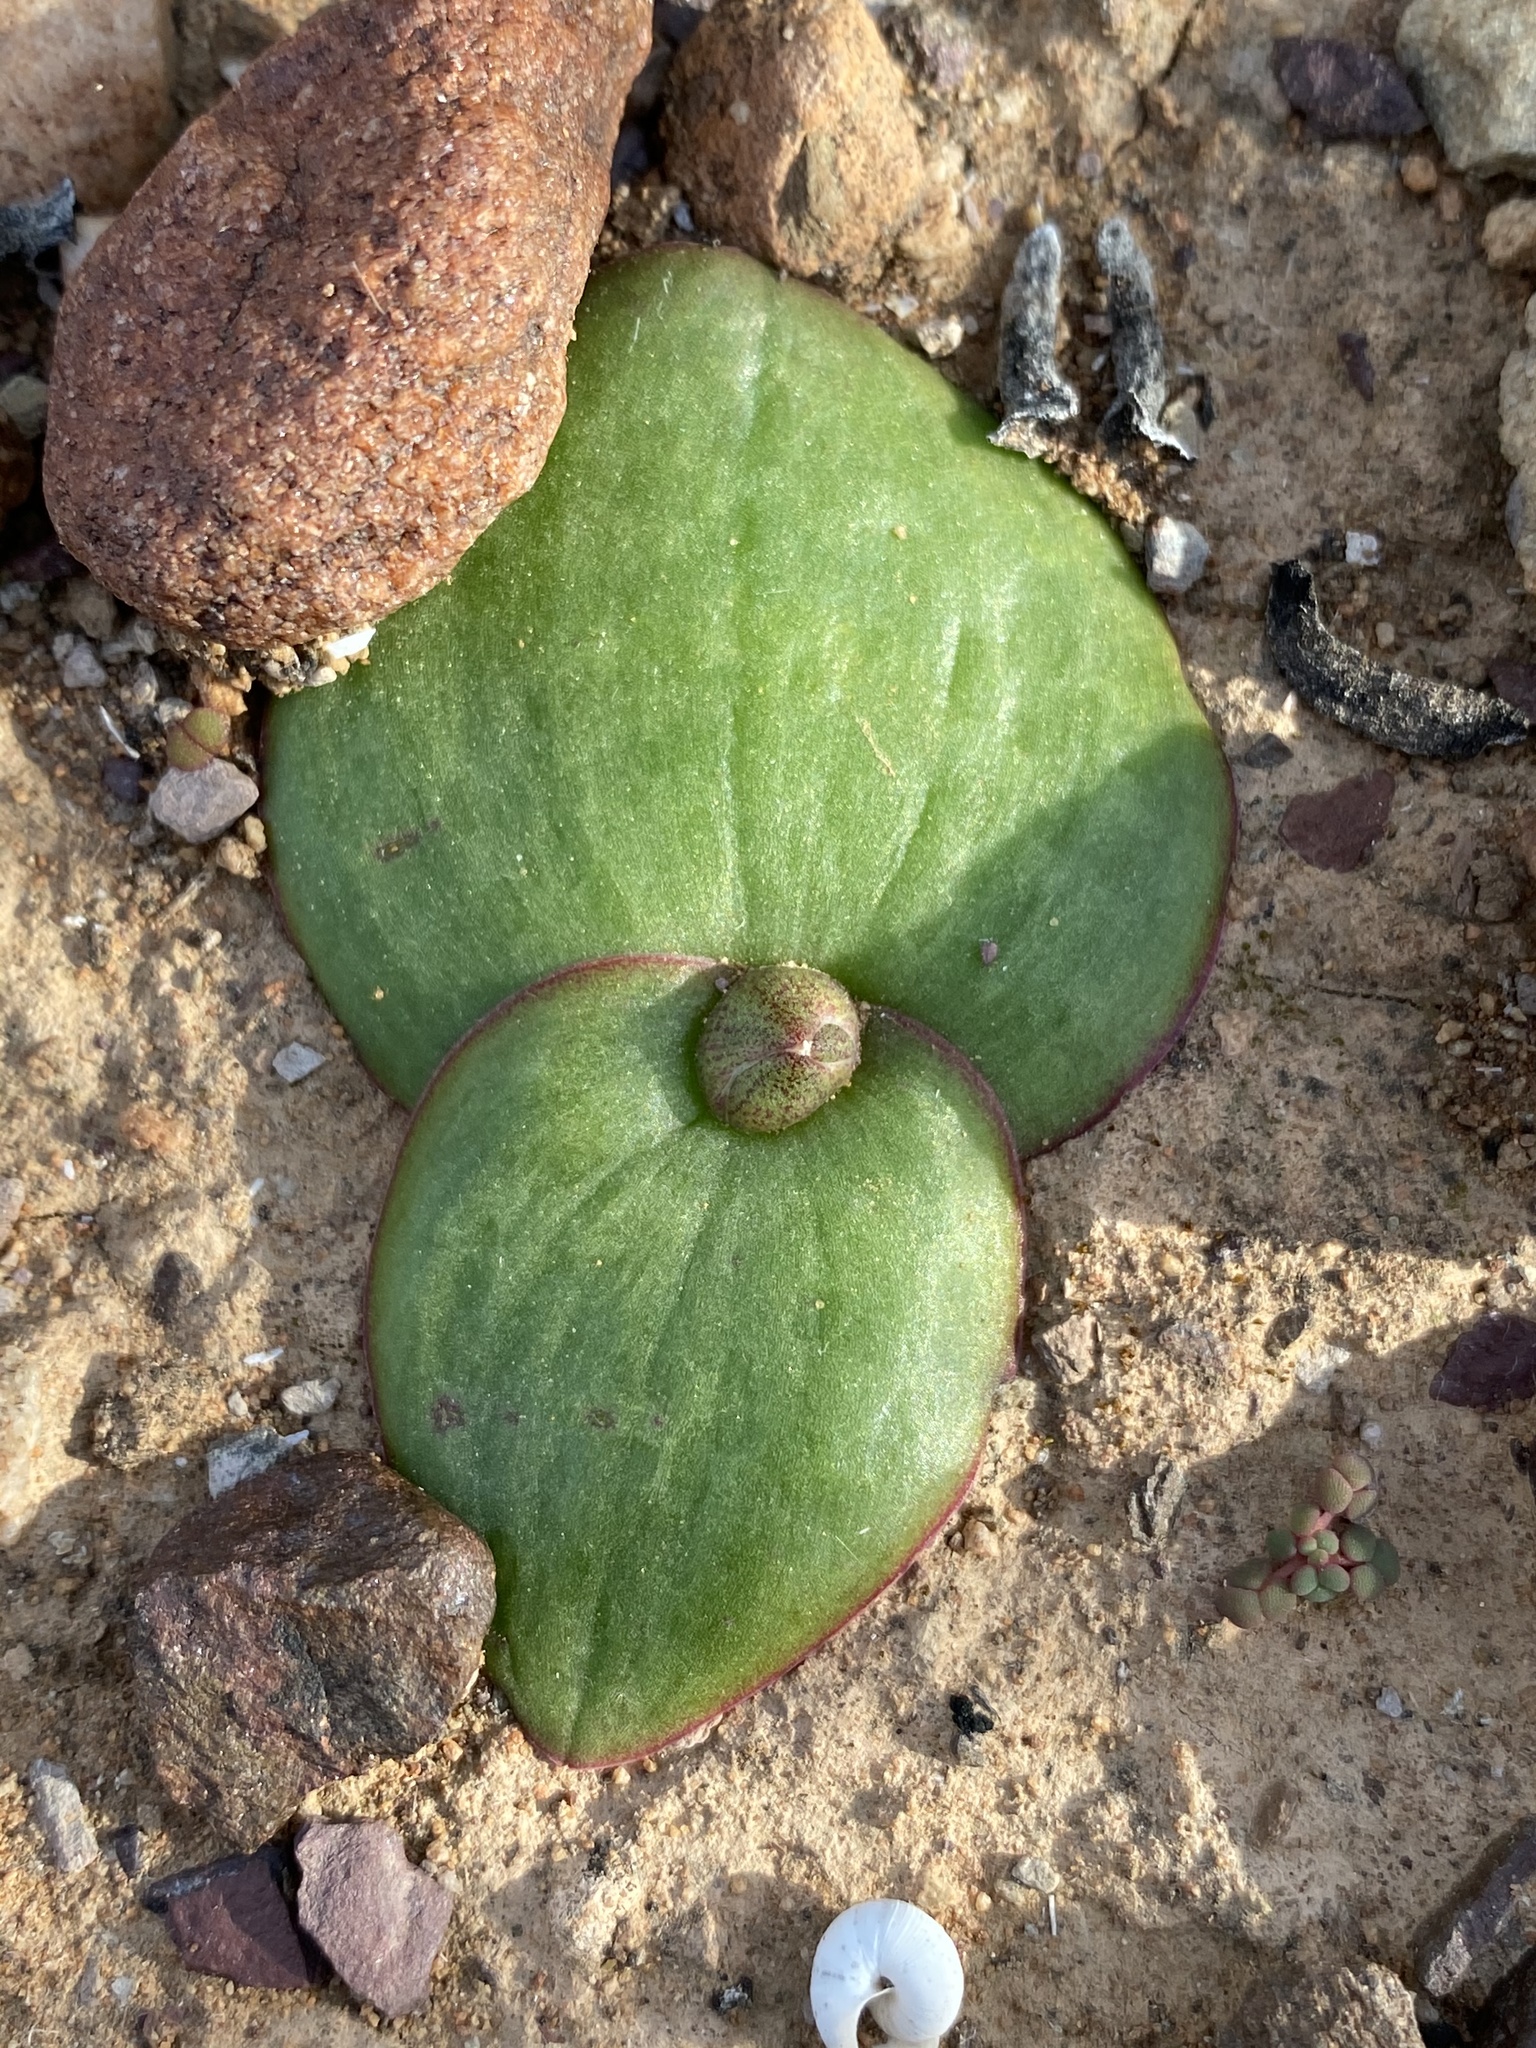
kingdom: Plantae
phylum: Tracheophyta
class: Liliopsida
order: Asparagales
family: Asparagaceae
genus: Massonia
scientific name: Massonia depressa
